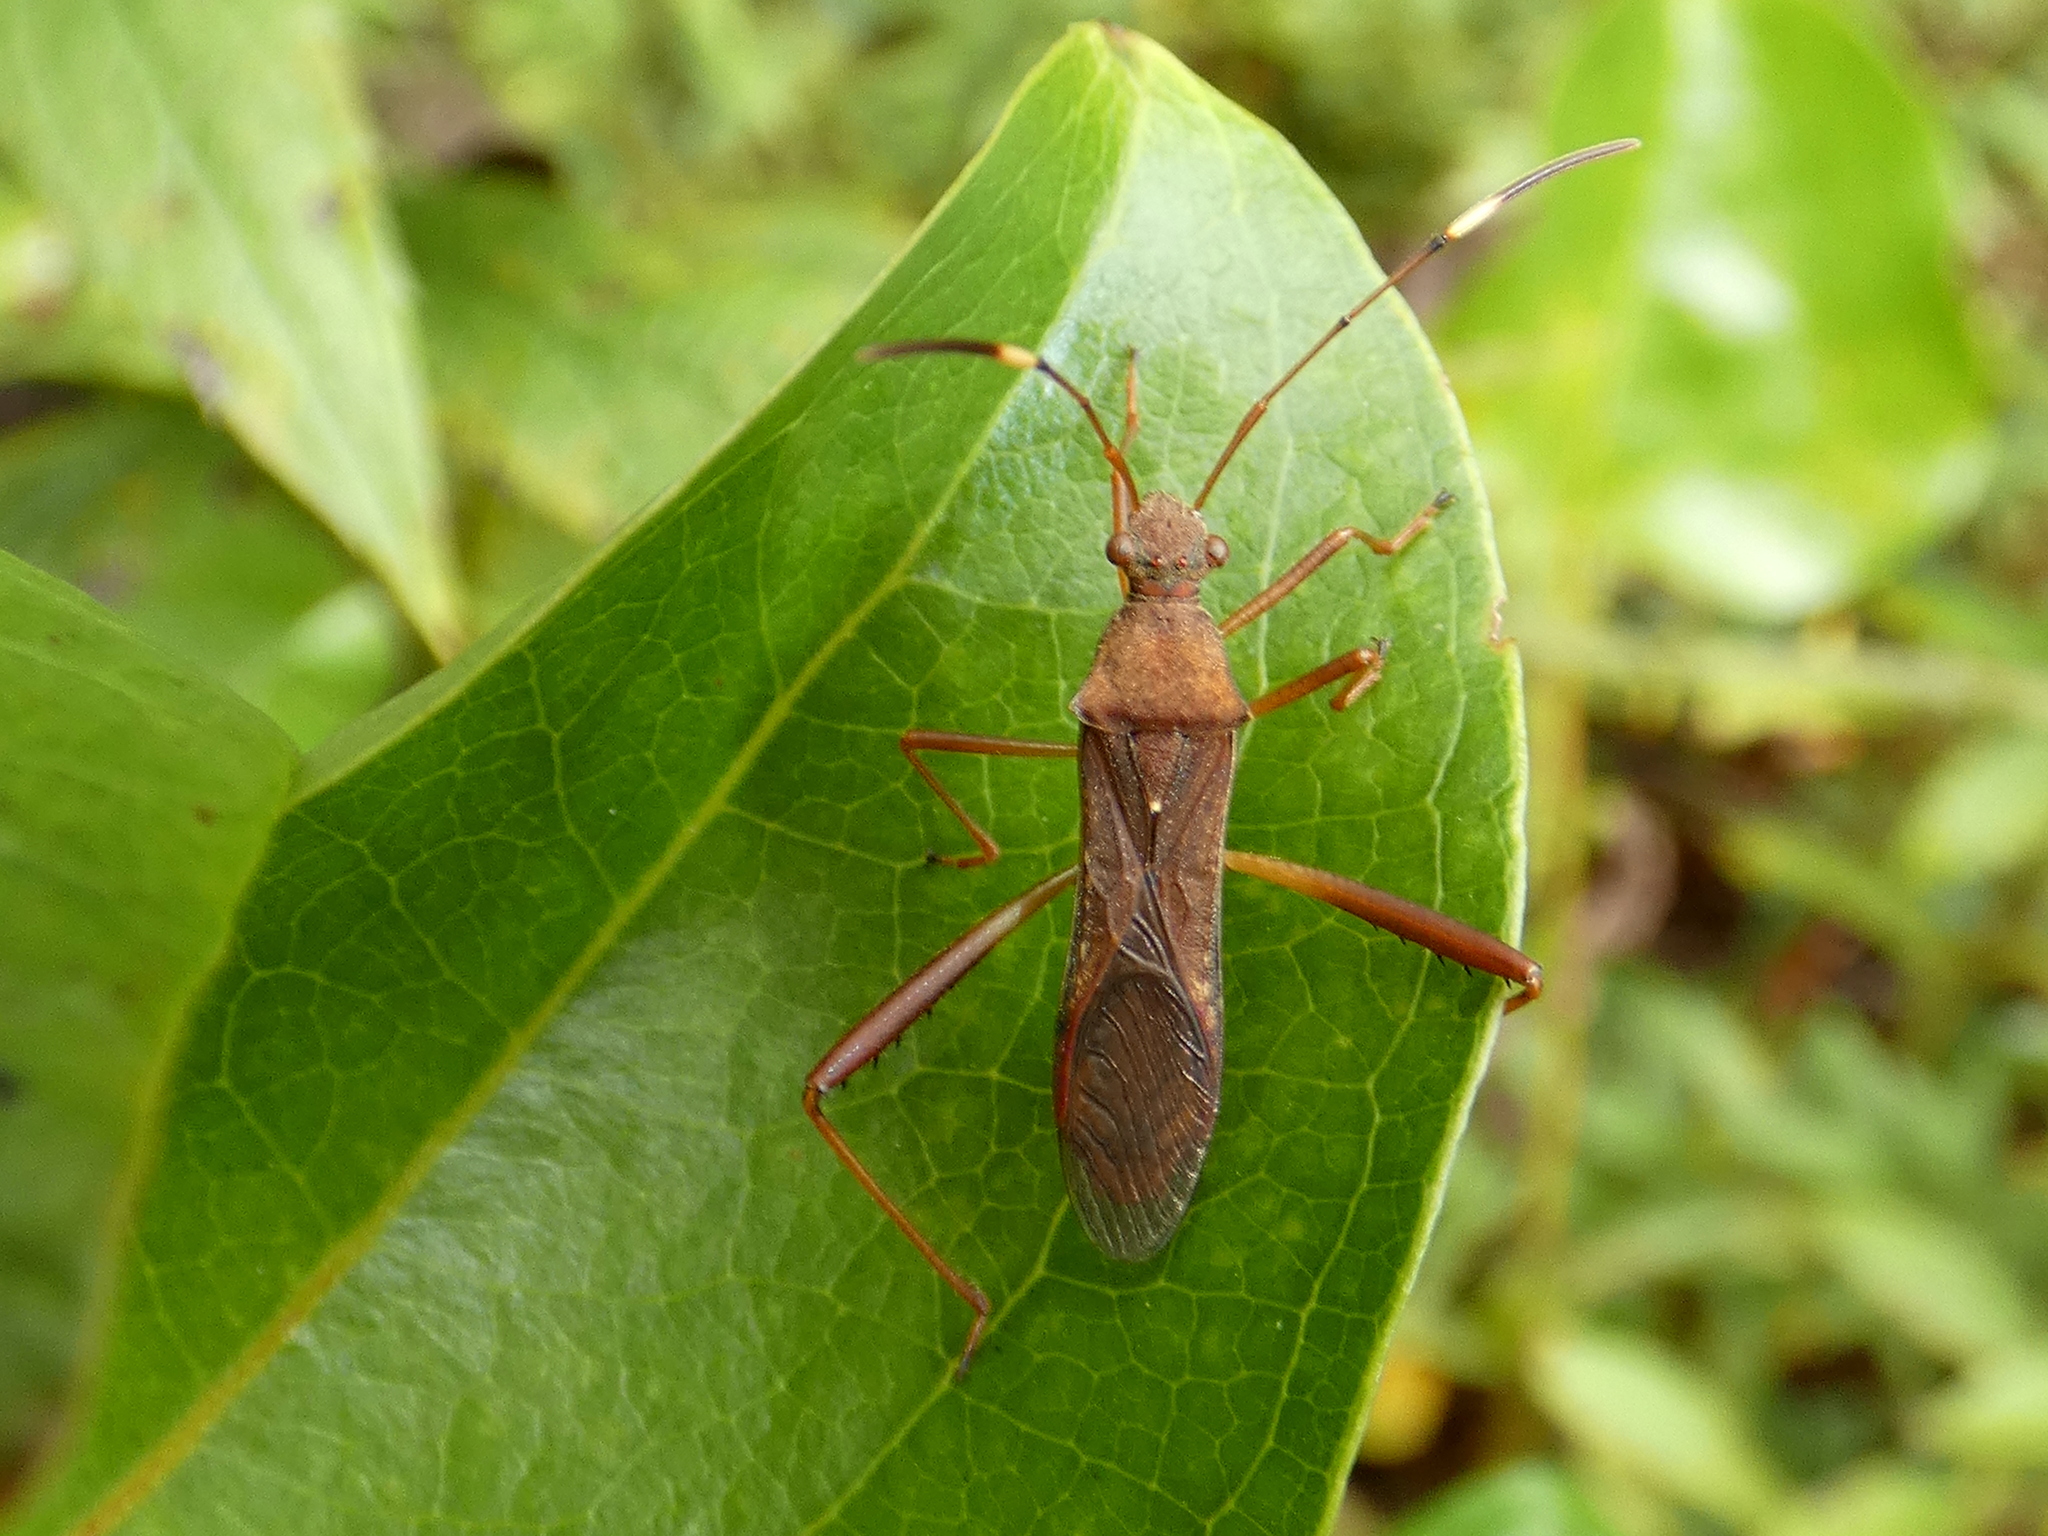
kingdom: Animalia
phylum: Arthropoda
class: Insecta
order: Hemiptera
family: Alydidae
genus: Megalotomus
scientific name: Megalotomus quinquespinosus
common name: Lupine bug
